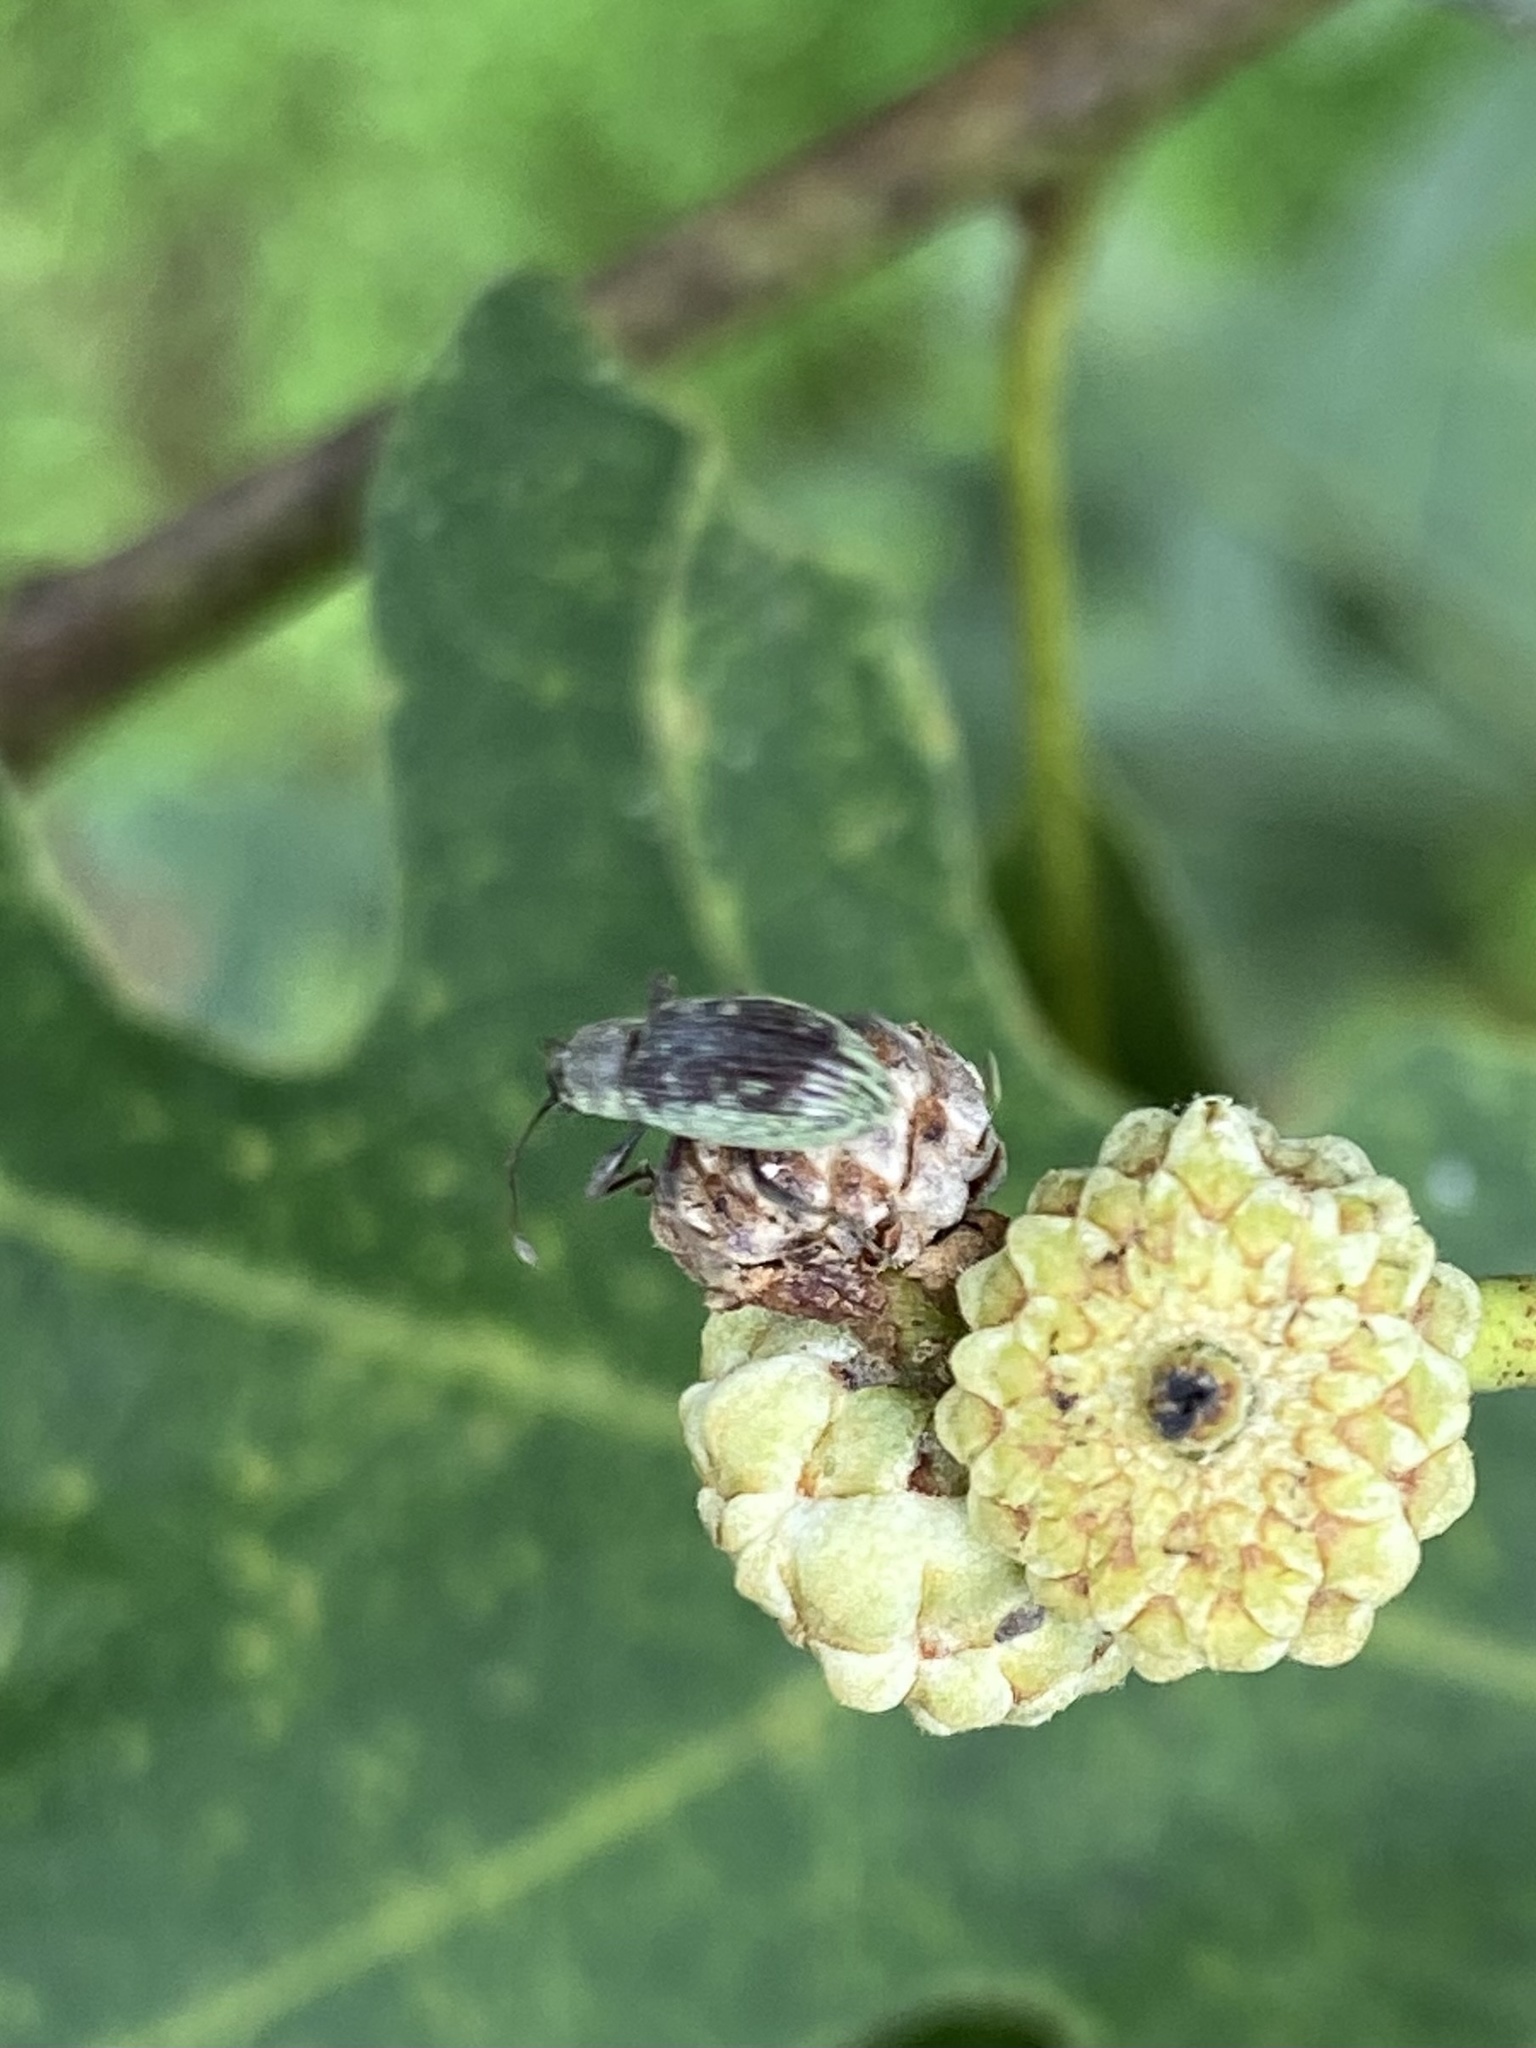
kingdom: Animalia
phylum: Arthropoda
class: Insecta
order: Coleoptera
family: Curculionidae
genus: Cyrtepistomus
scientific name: Cyrtepistomus castaneus
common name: Weevil
